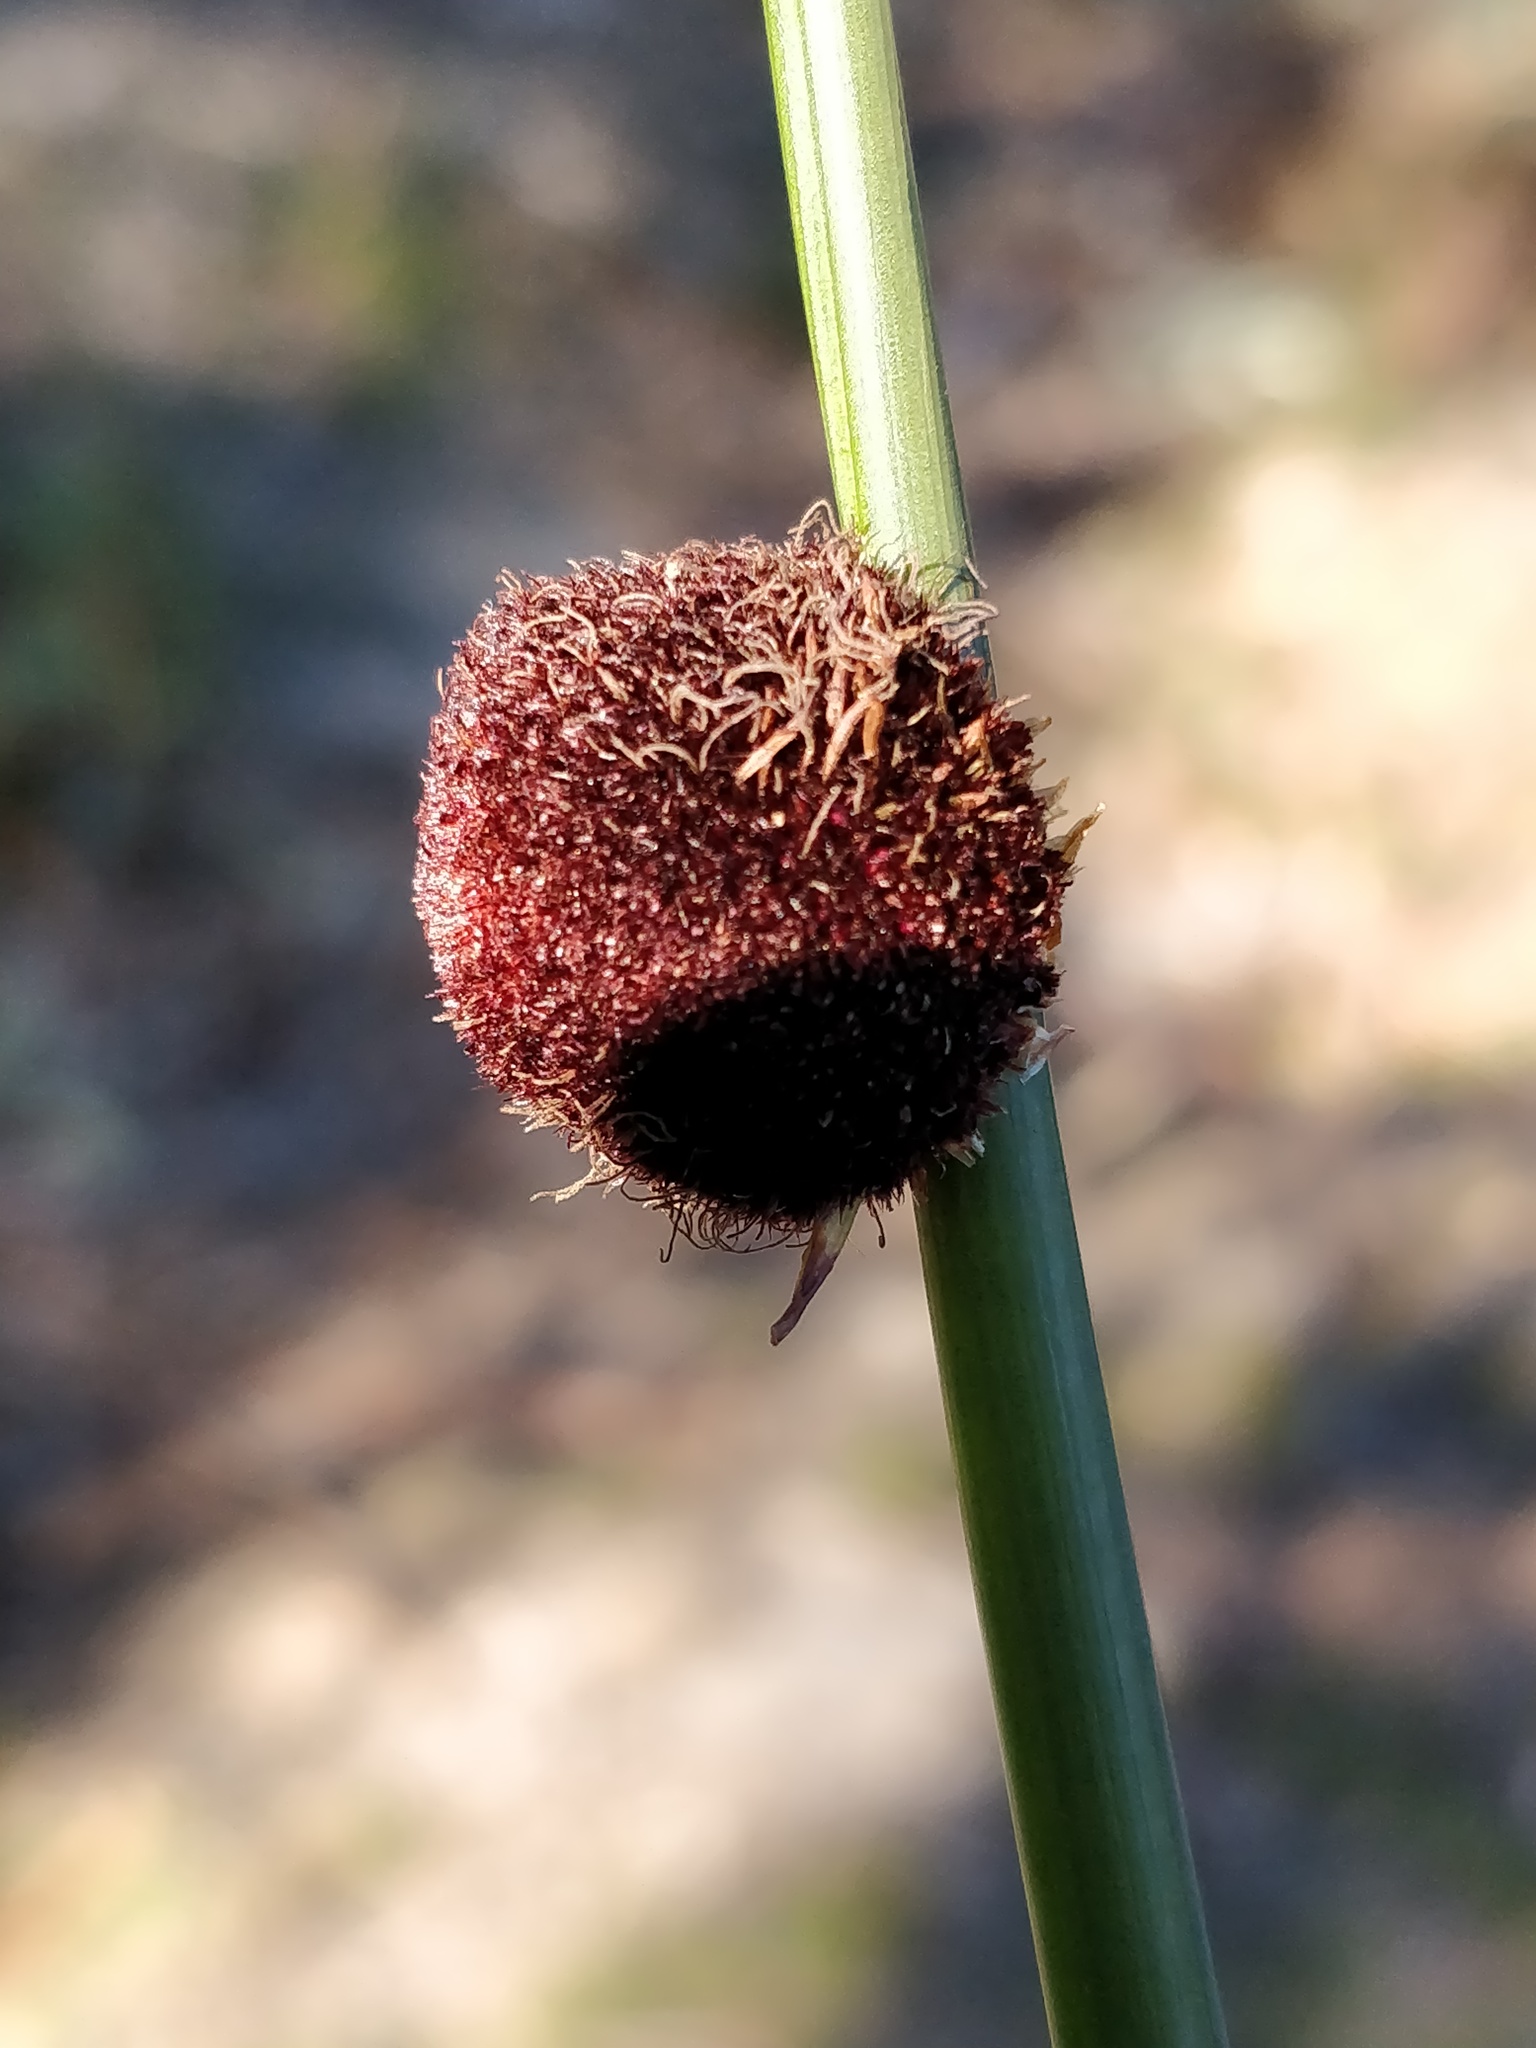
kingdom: Plantae
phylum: Tracheophyta
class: Liliopsida
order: Poales
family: Cyperaceae
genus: Chorizandra
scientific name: Chorizandra sphaerocephala
